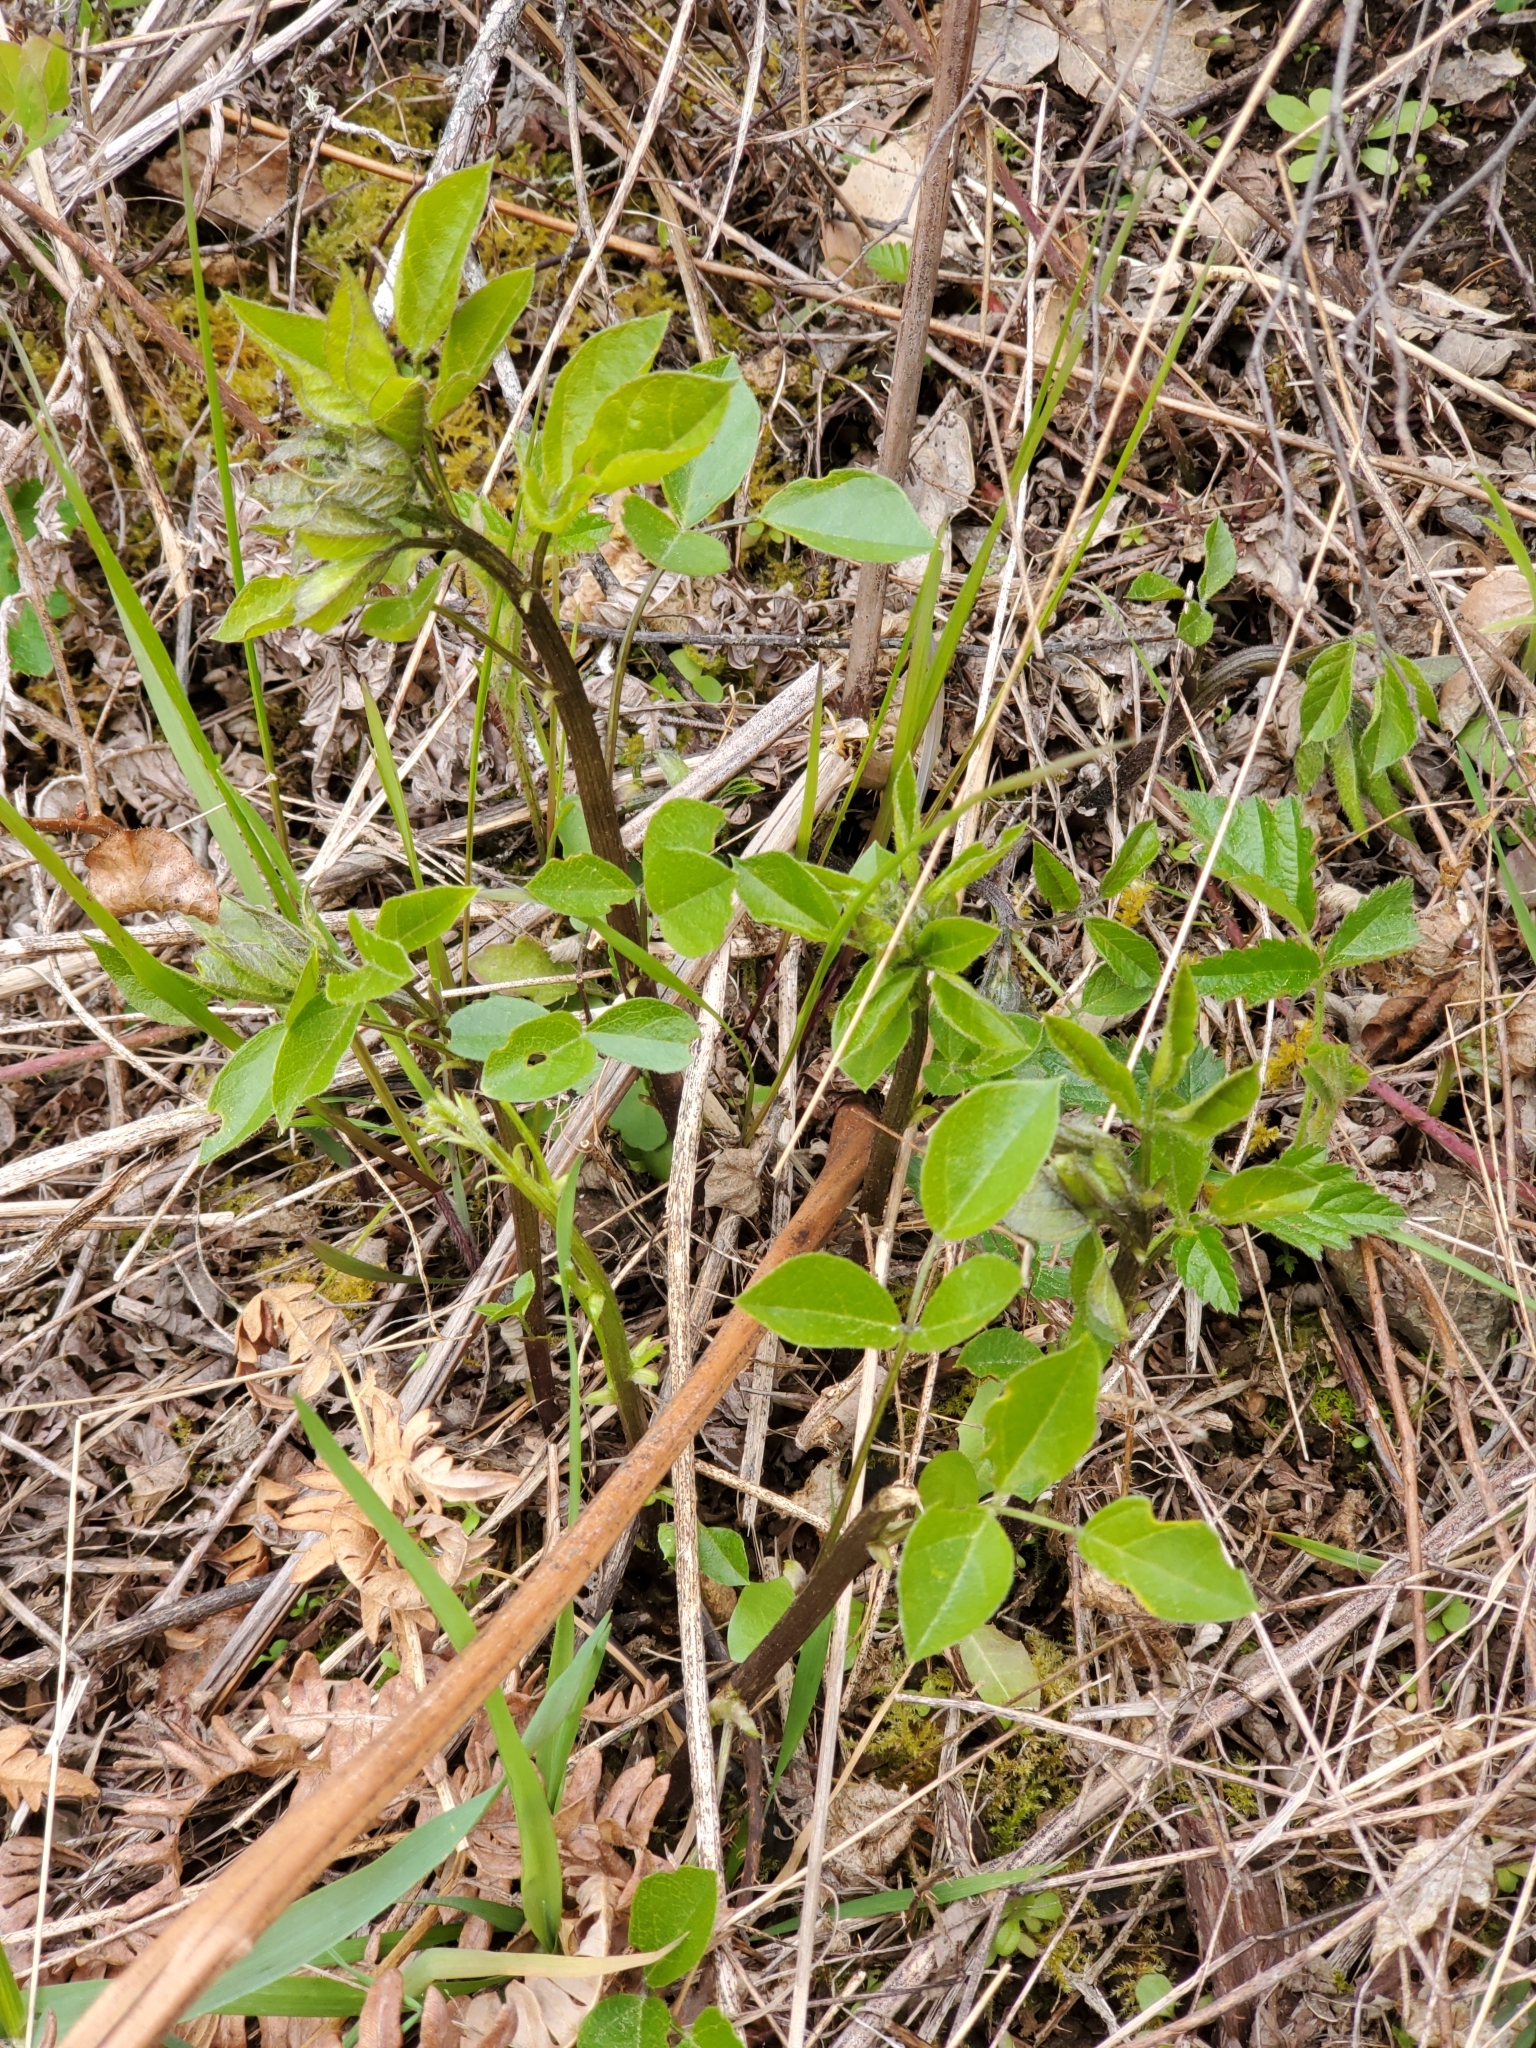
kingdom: Plantae
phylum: Tracheophyta
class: Magnoliopsida
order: Fabales
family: Fabaceae
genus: Rupertia
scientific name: Rupertia physodes
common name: California-tea
